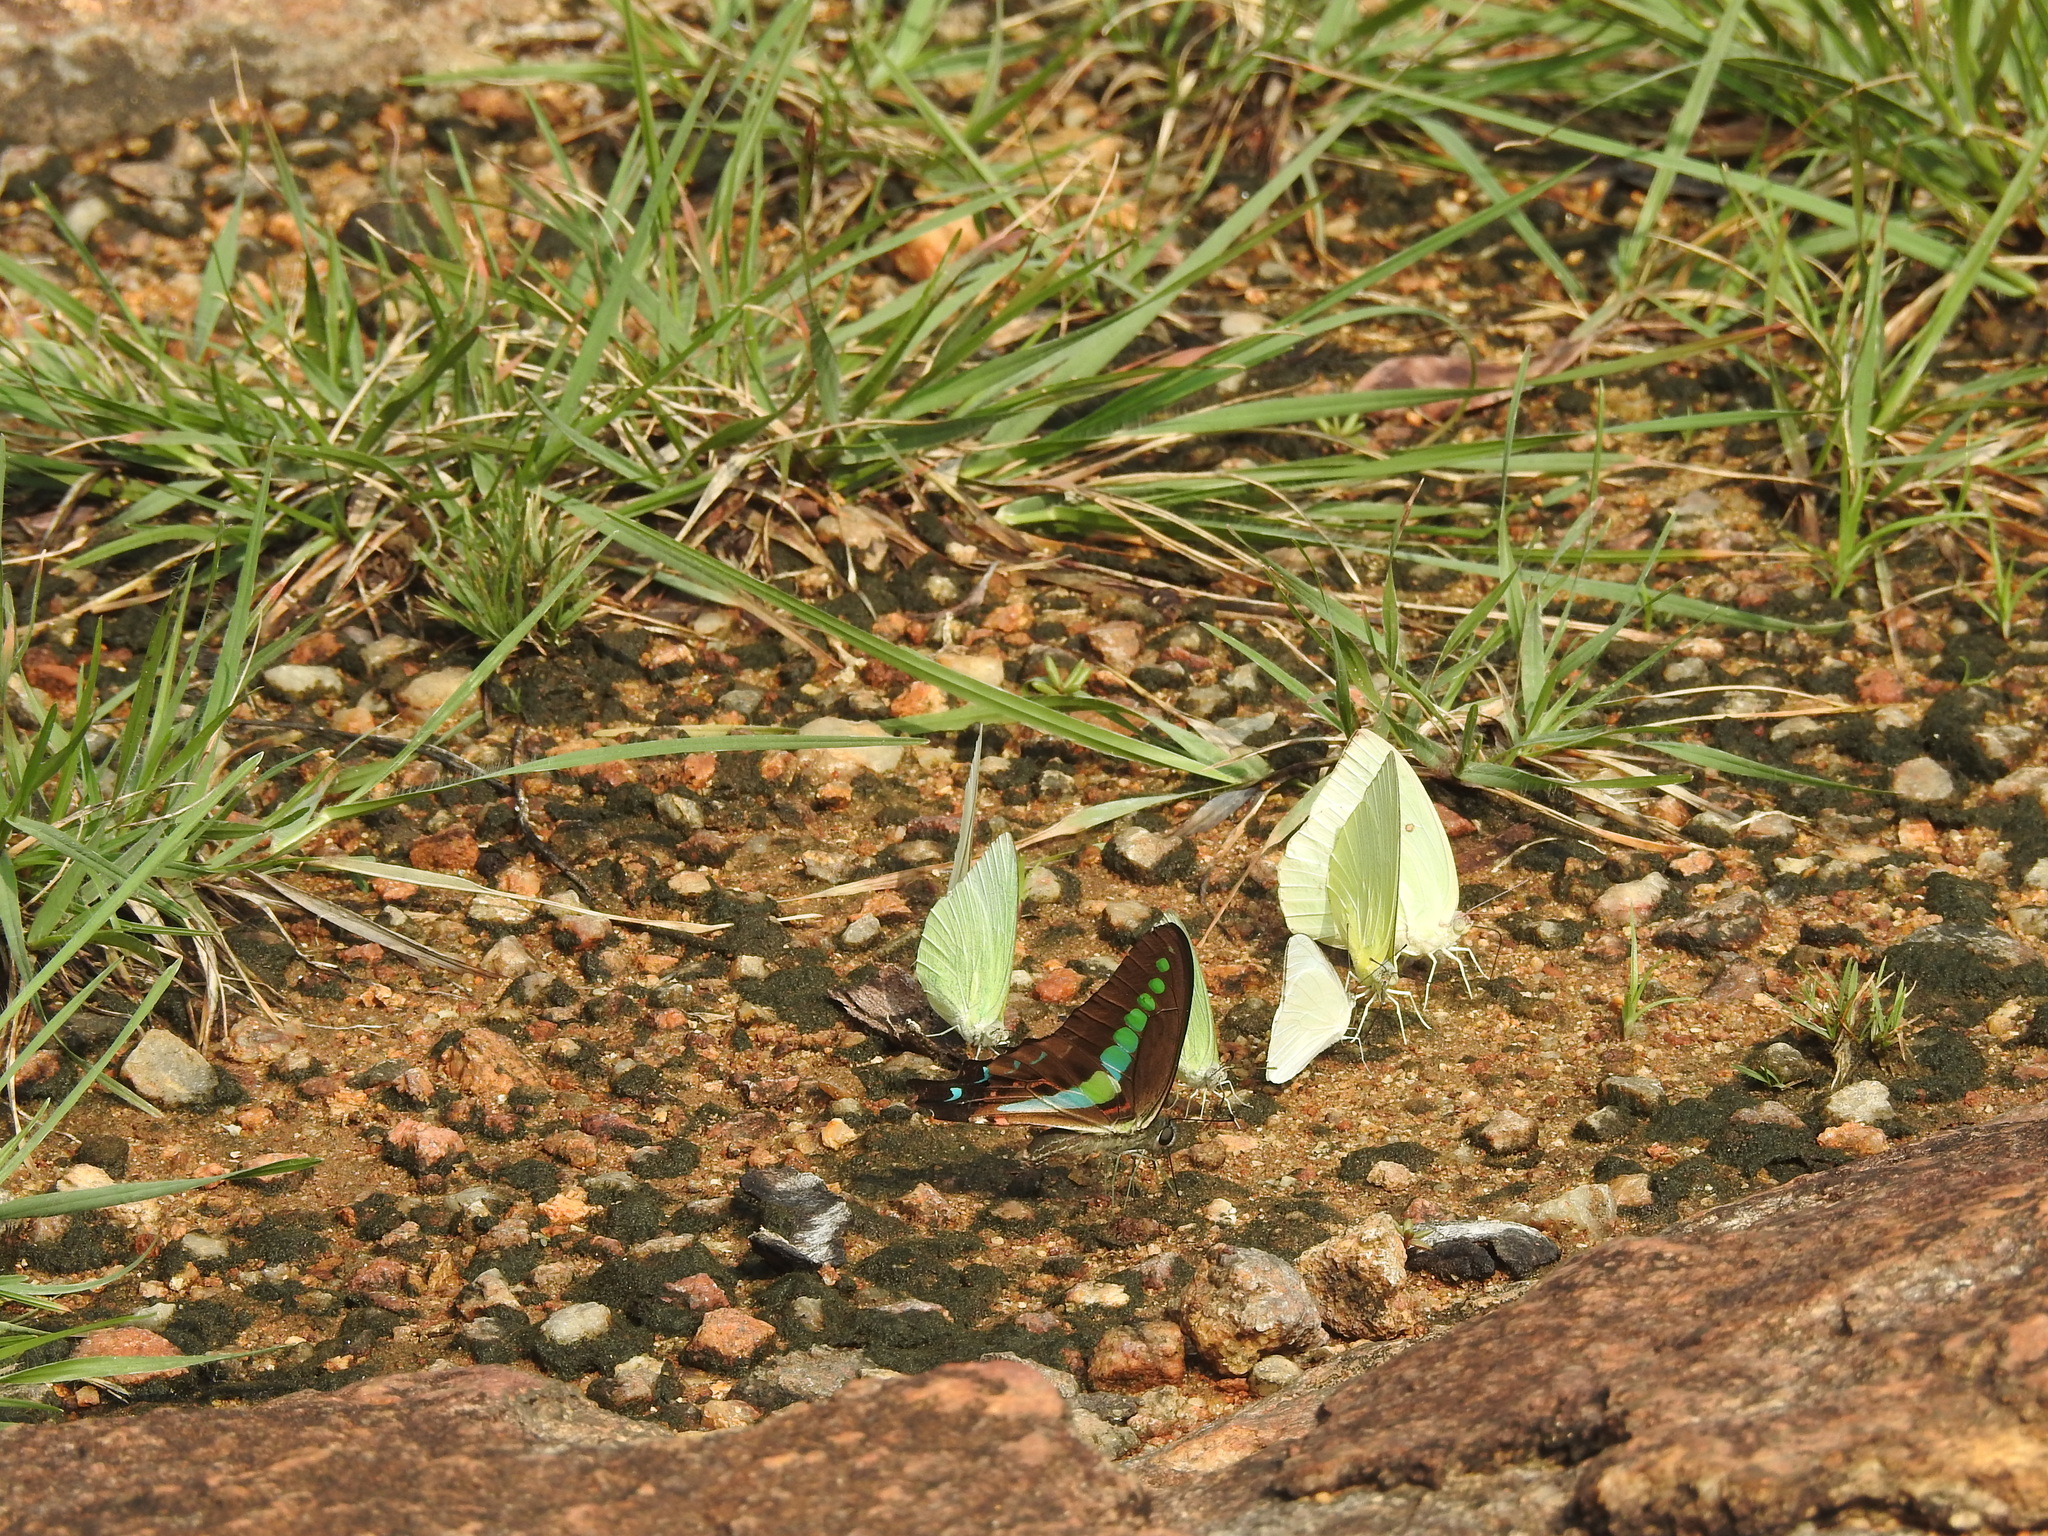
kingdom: Animalia
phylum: Arthropoda
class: Insecta
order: Lepidoptera
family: Papilionidae
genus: Graphium
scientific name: Graphium
